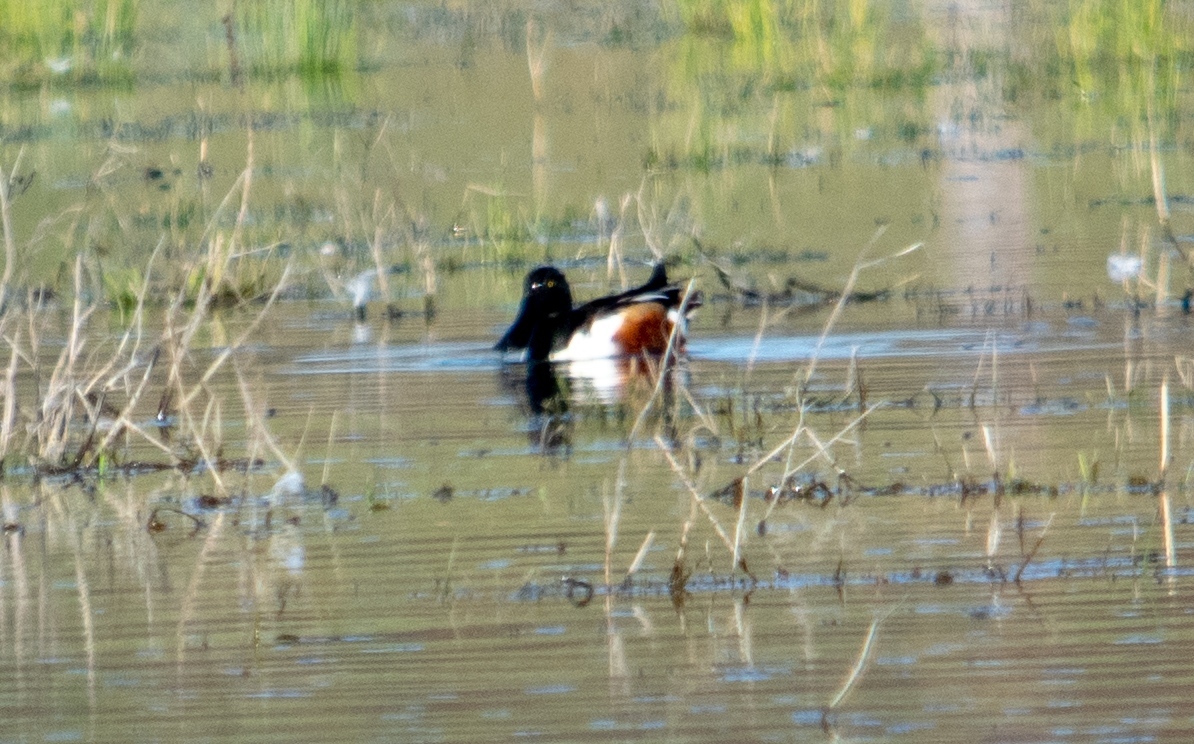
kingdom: Animalia
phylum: Chordata
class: Aves
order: Anseriformes
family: Anatidae
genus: Spatula
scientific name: Spatula clypeata
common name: Northern shoveler
